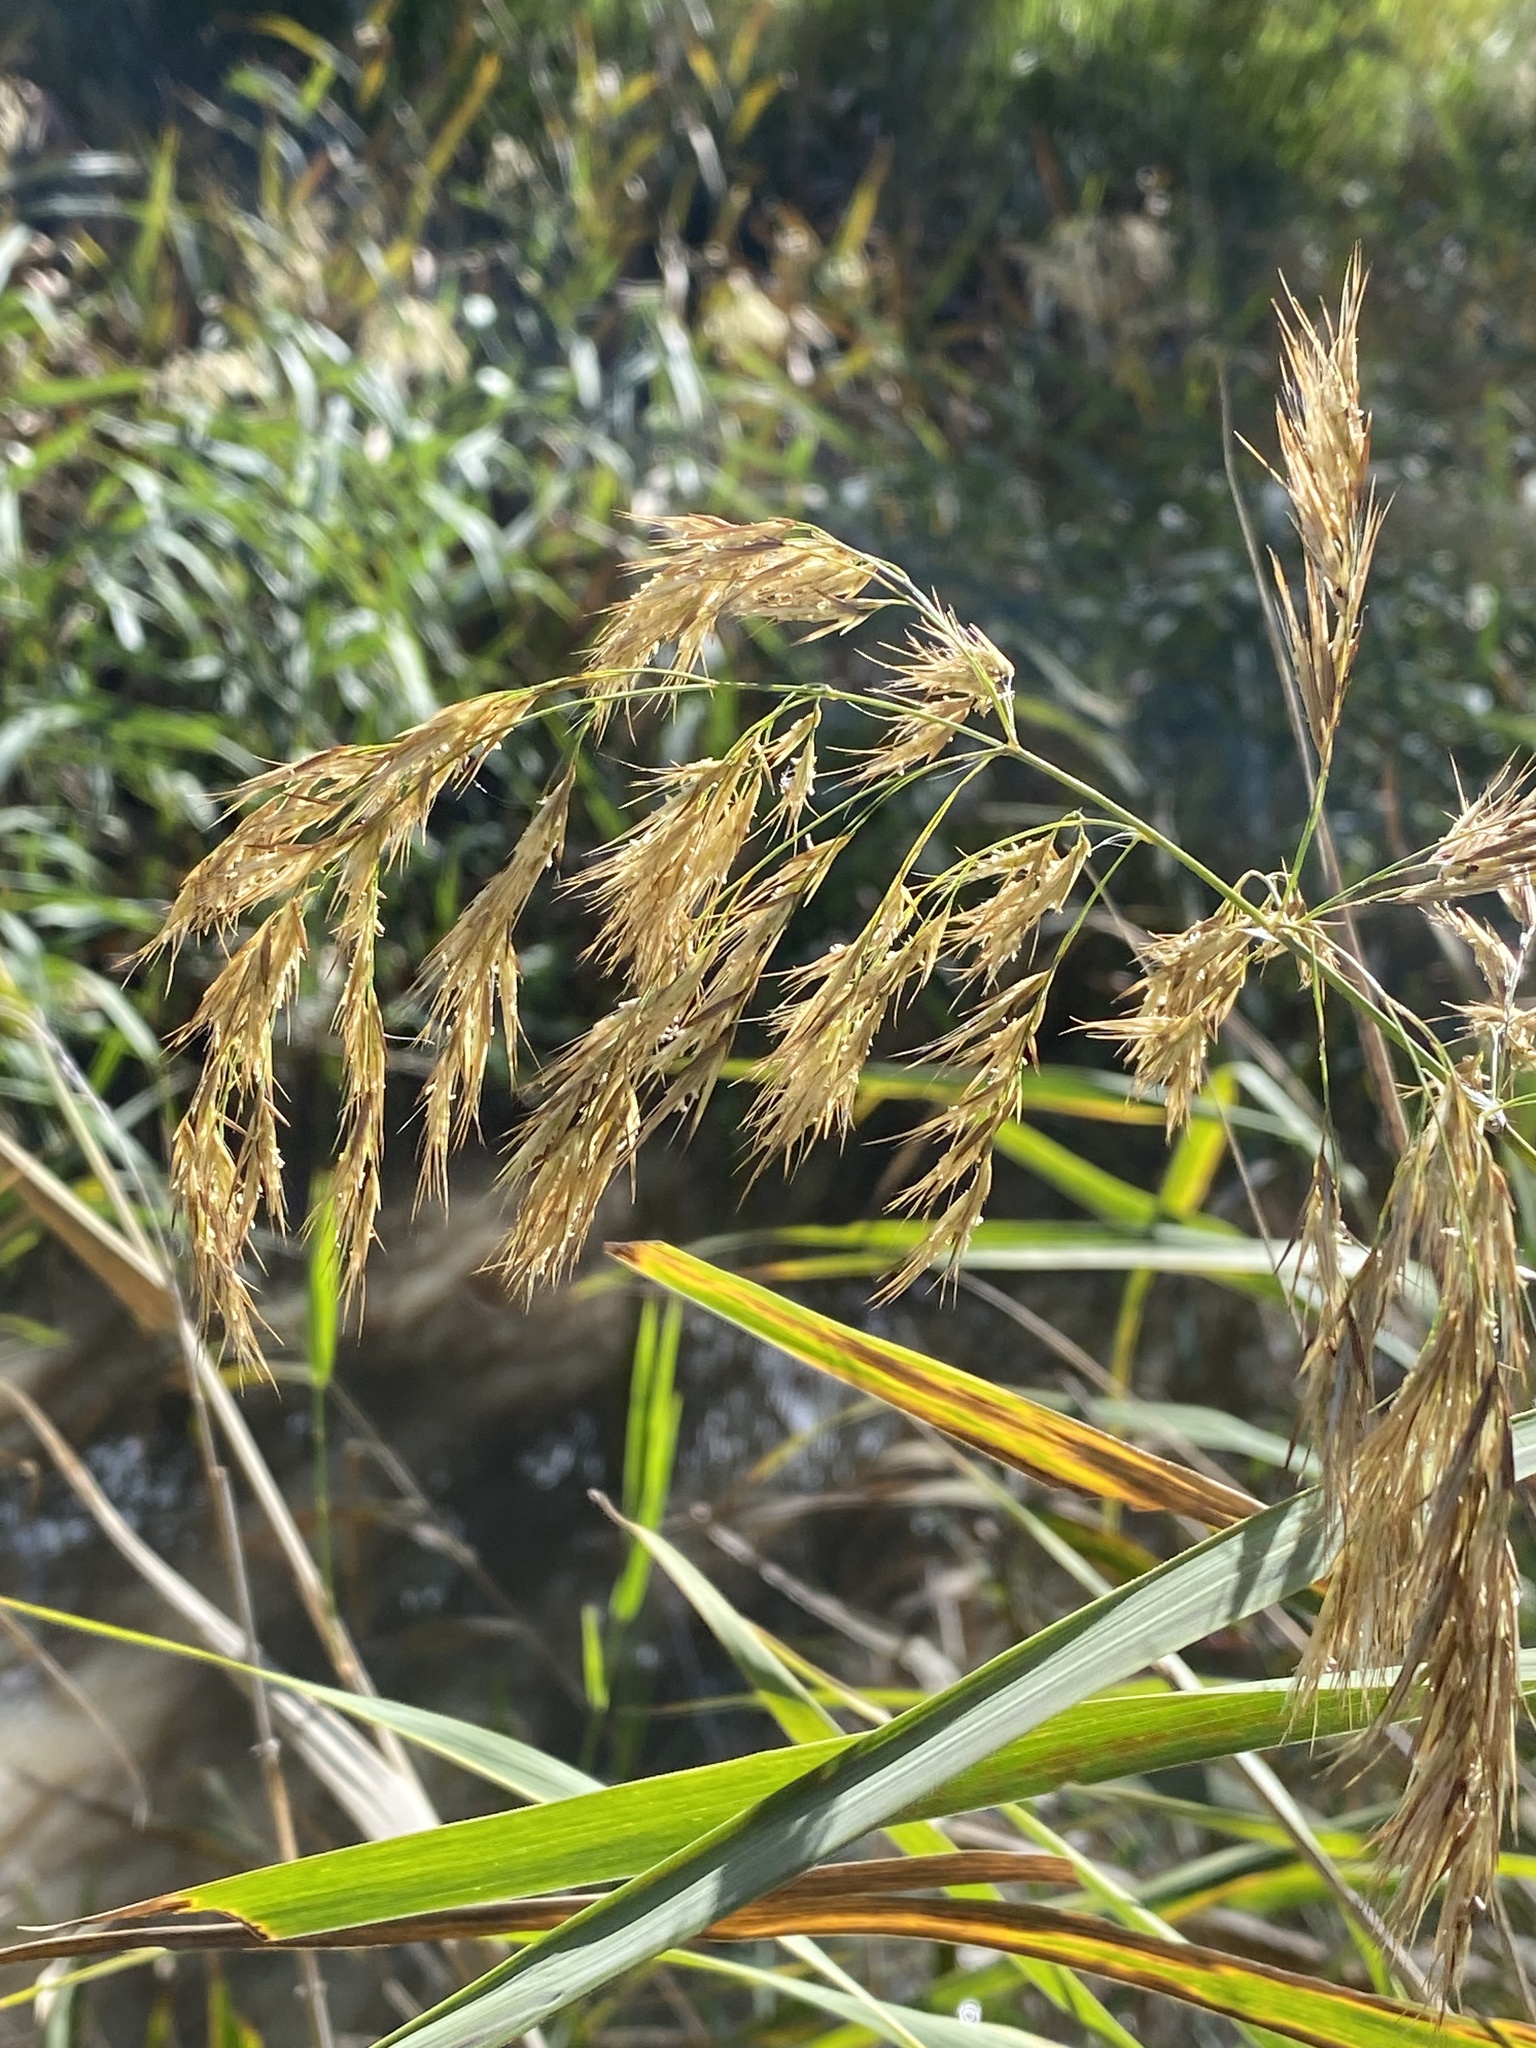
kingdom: Plantae
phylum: Tracheophyta
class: Liliopsida
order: Poales
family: Poaceae
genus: Phragmites
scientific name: Phragmites australis
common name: Common reed
